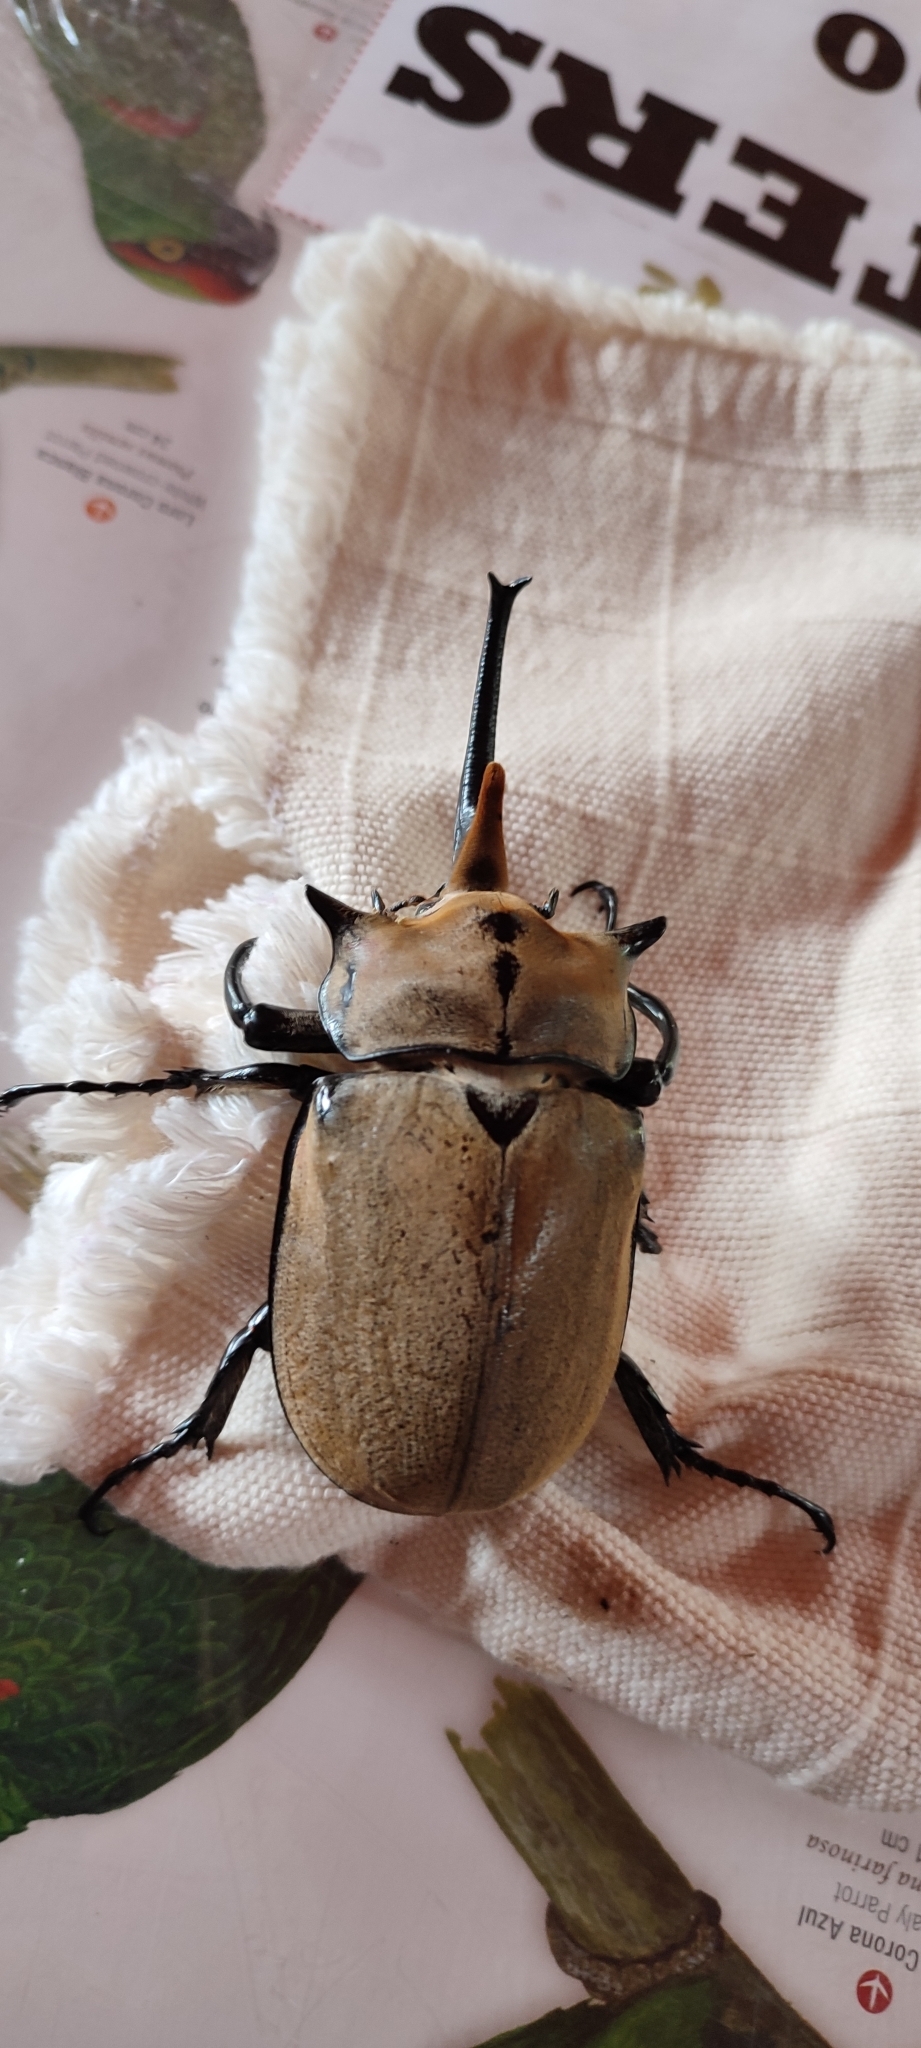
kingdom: Animalia
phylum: Arthropoda
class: Insecta
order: Coleoptera
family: Scarabaeidae
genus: Megasoma
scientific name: Megasoma occidentale
